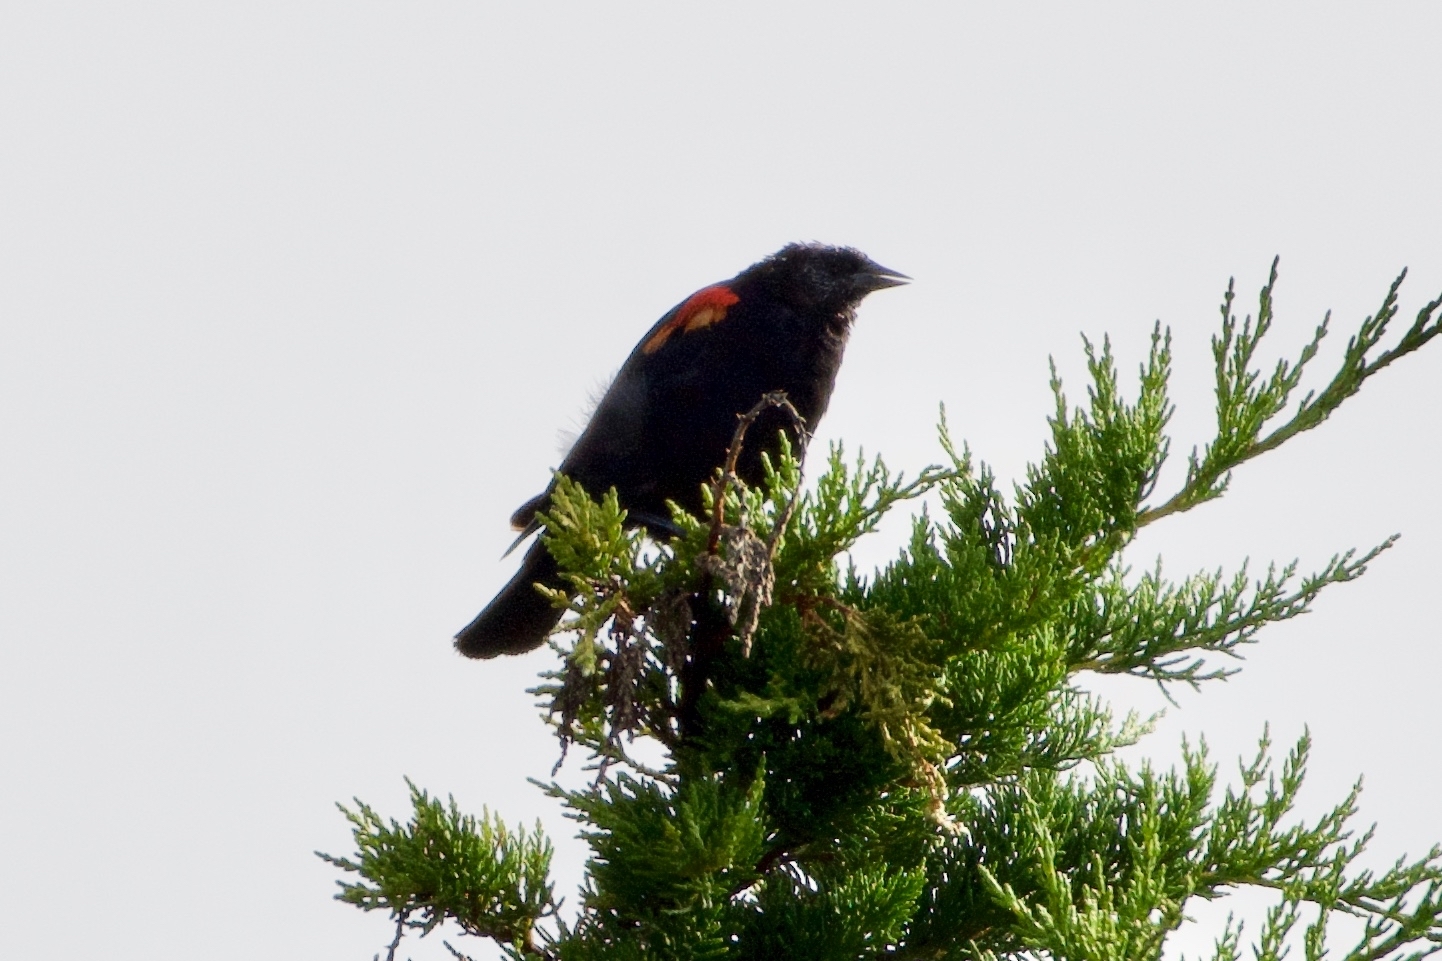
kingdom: Animalia
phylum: Chordata
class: Aves
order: Passeriformes
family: Icteridae
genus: Agelaius
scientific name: Agelaius phoeniceus
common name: Red-winged blackbird
